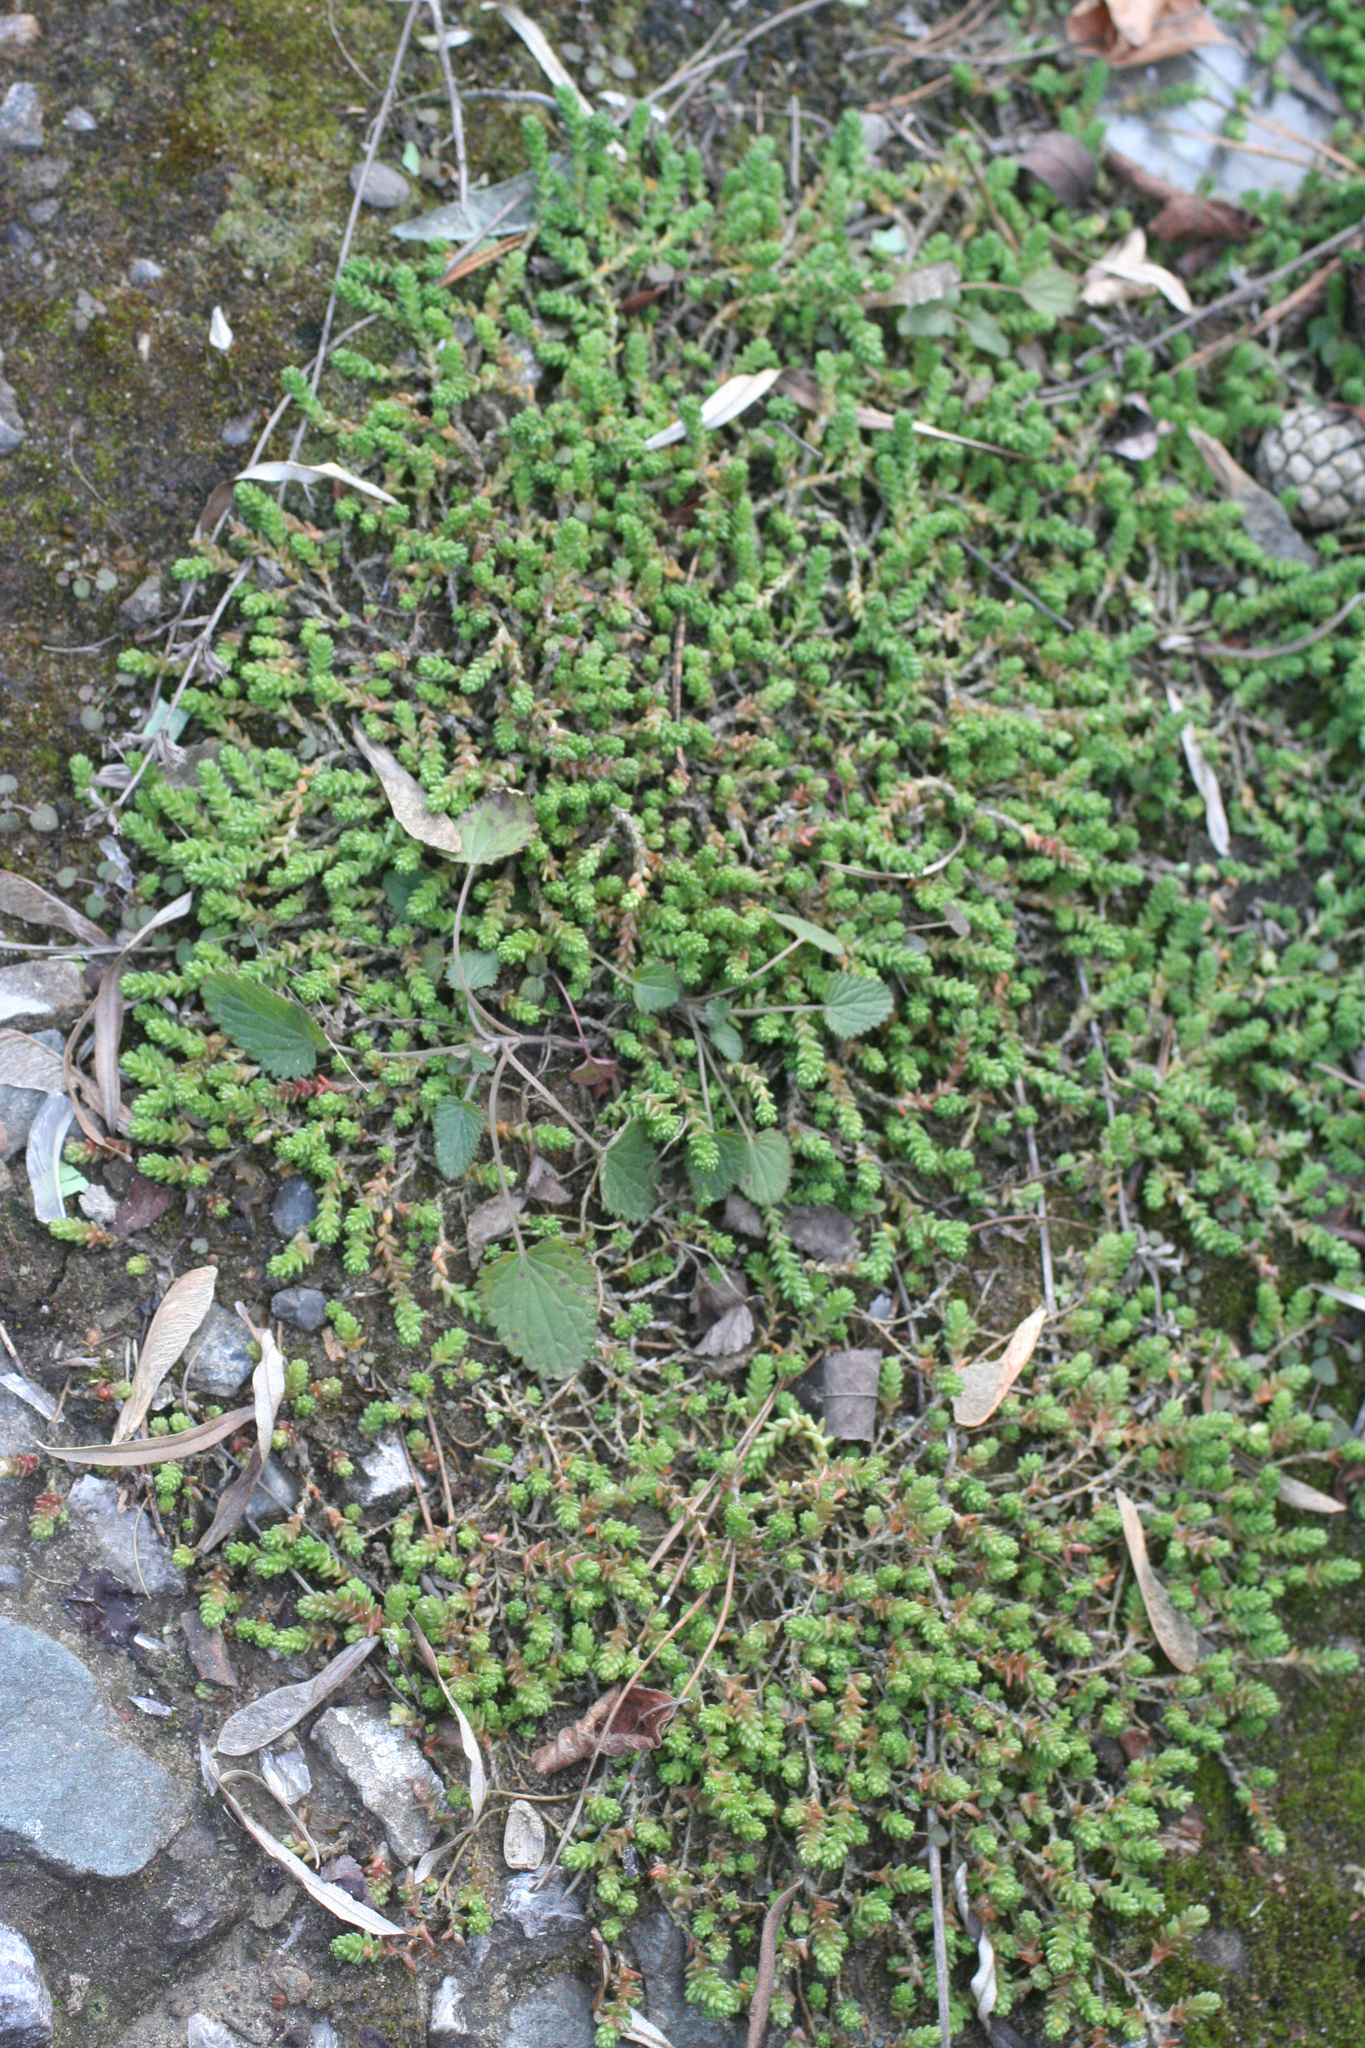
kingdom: Plantae
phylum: Tracheophyta
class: Magnoliopsida
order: Saxifragales
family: Crassulaceae
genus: Sedum
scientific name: Sedum acre
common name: Biting stonecrop
